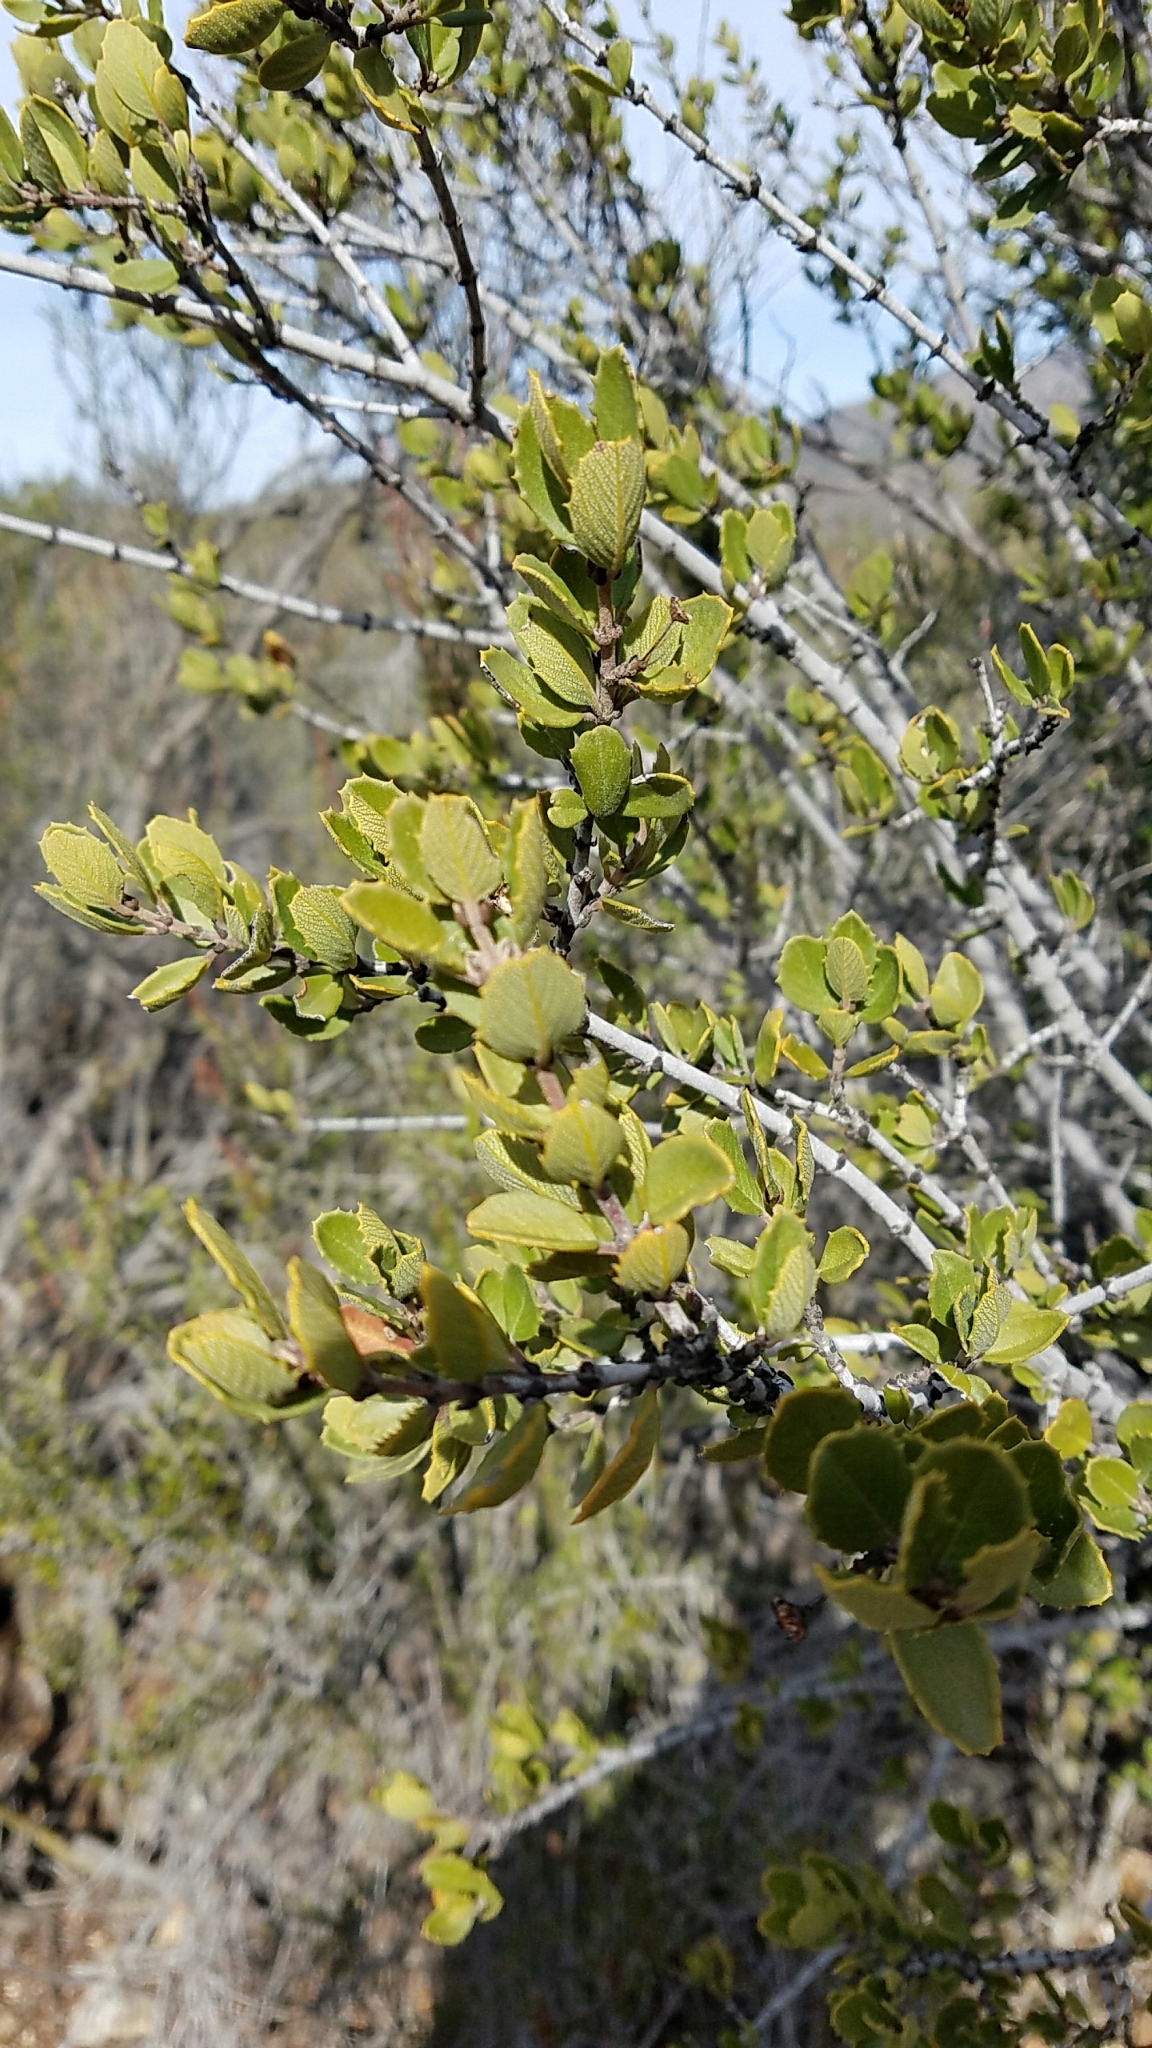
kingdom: Plantae
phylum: Tracheophyta
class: Magnoliopsida
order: Rosales
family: Rhamnaceae
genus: Ceanothus
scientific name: Ceanothus perplexans
